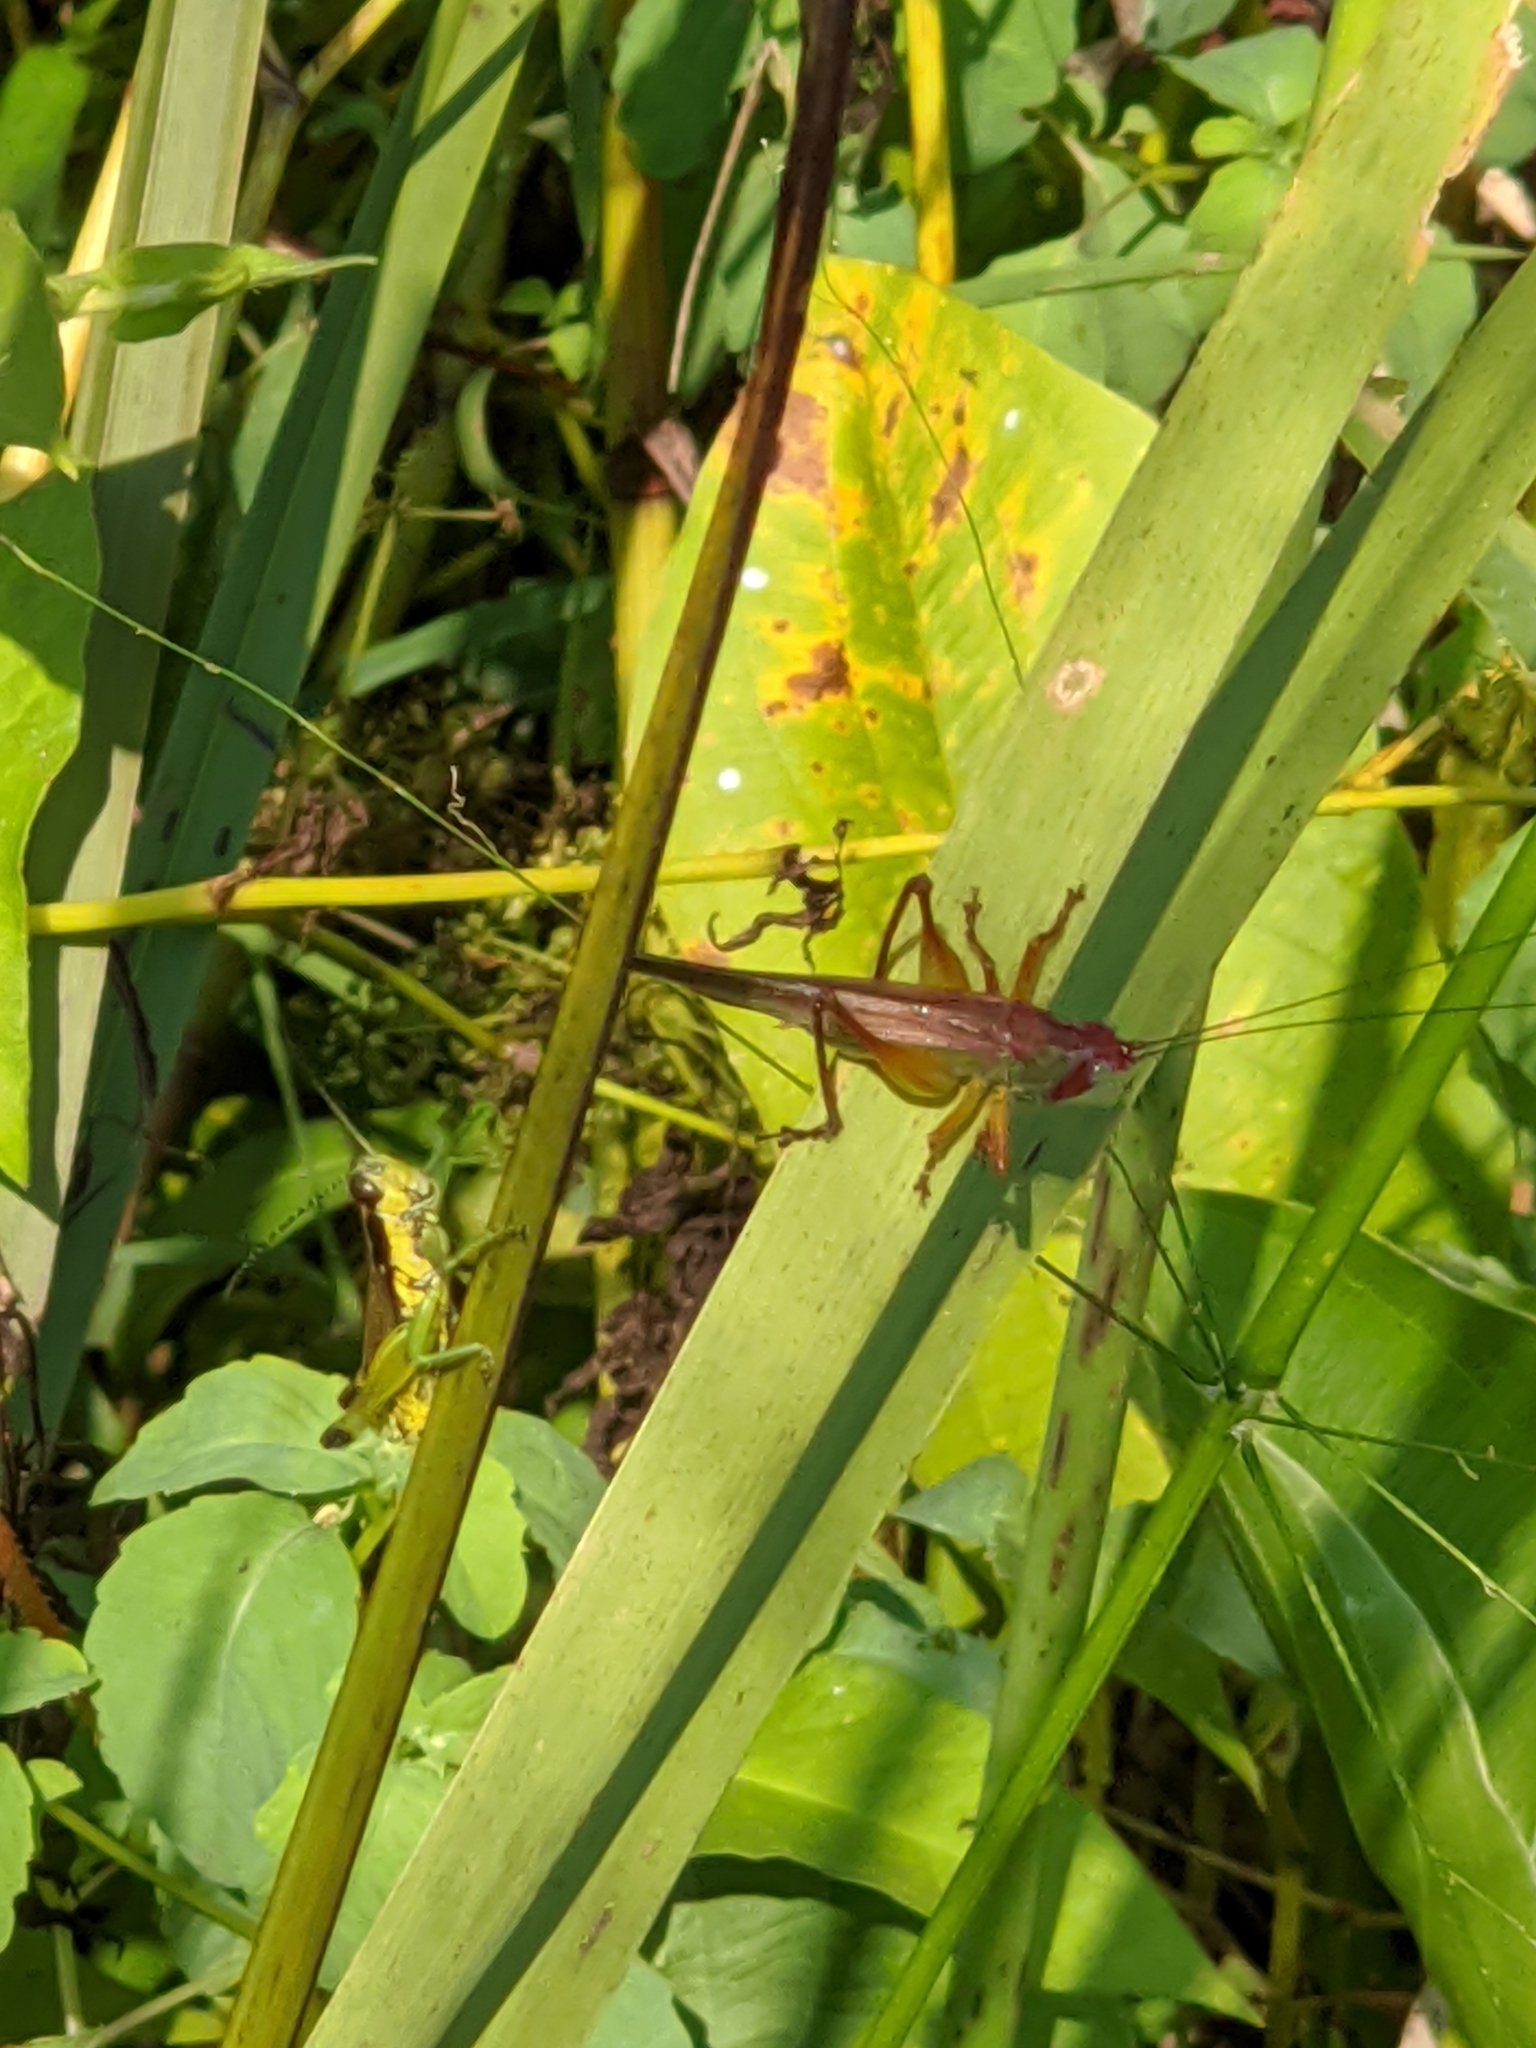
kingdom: Animalia
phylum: Arthropoda
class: Insecta
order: Orthoptera
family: Tettigoniidae
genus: Orchelimum
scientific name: Orchelimum pulchellum
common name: Handsome meadow katydid
